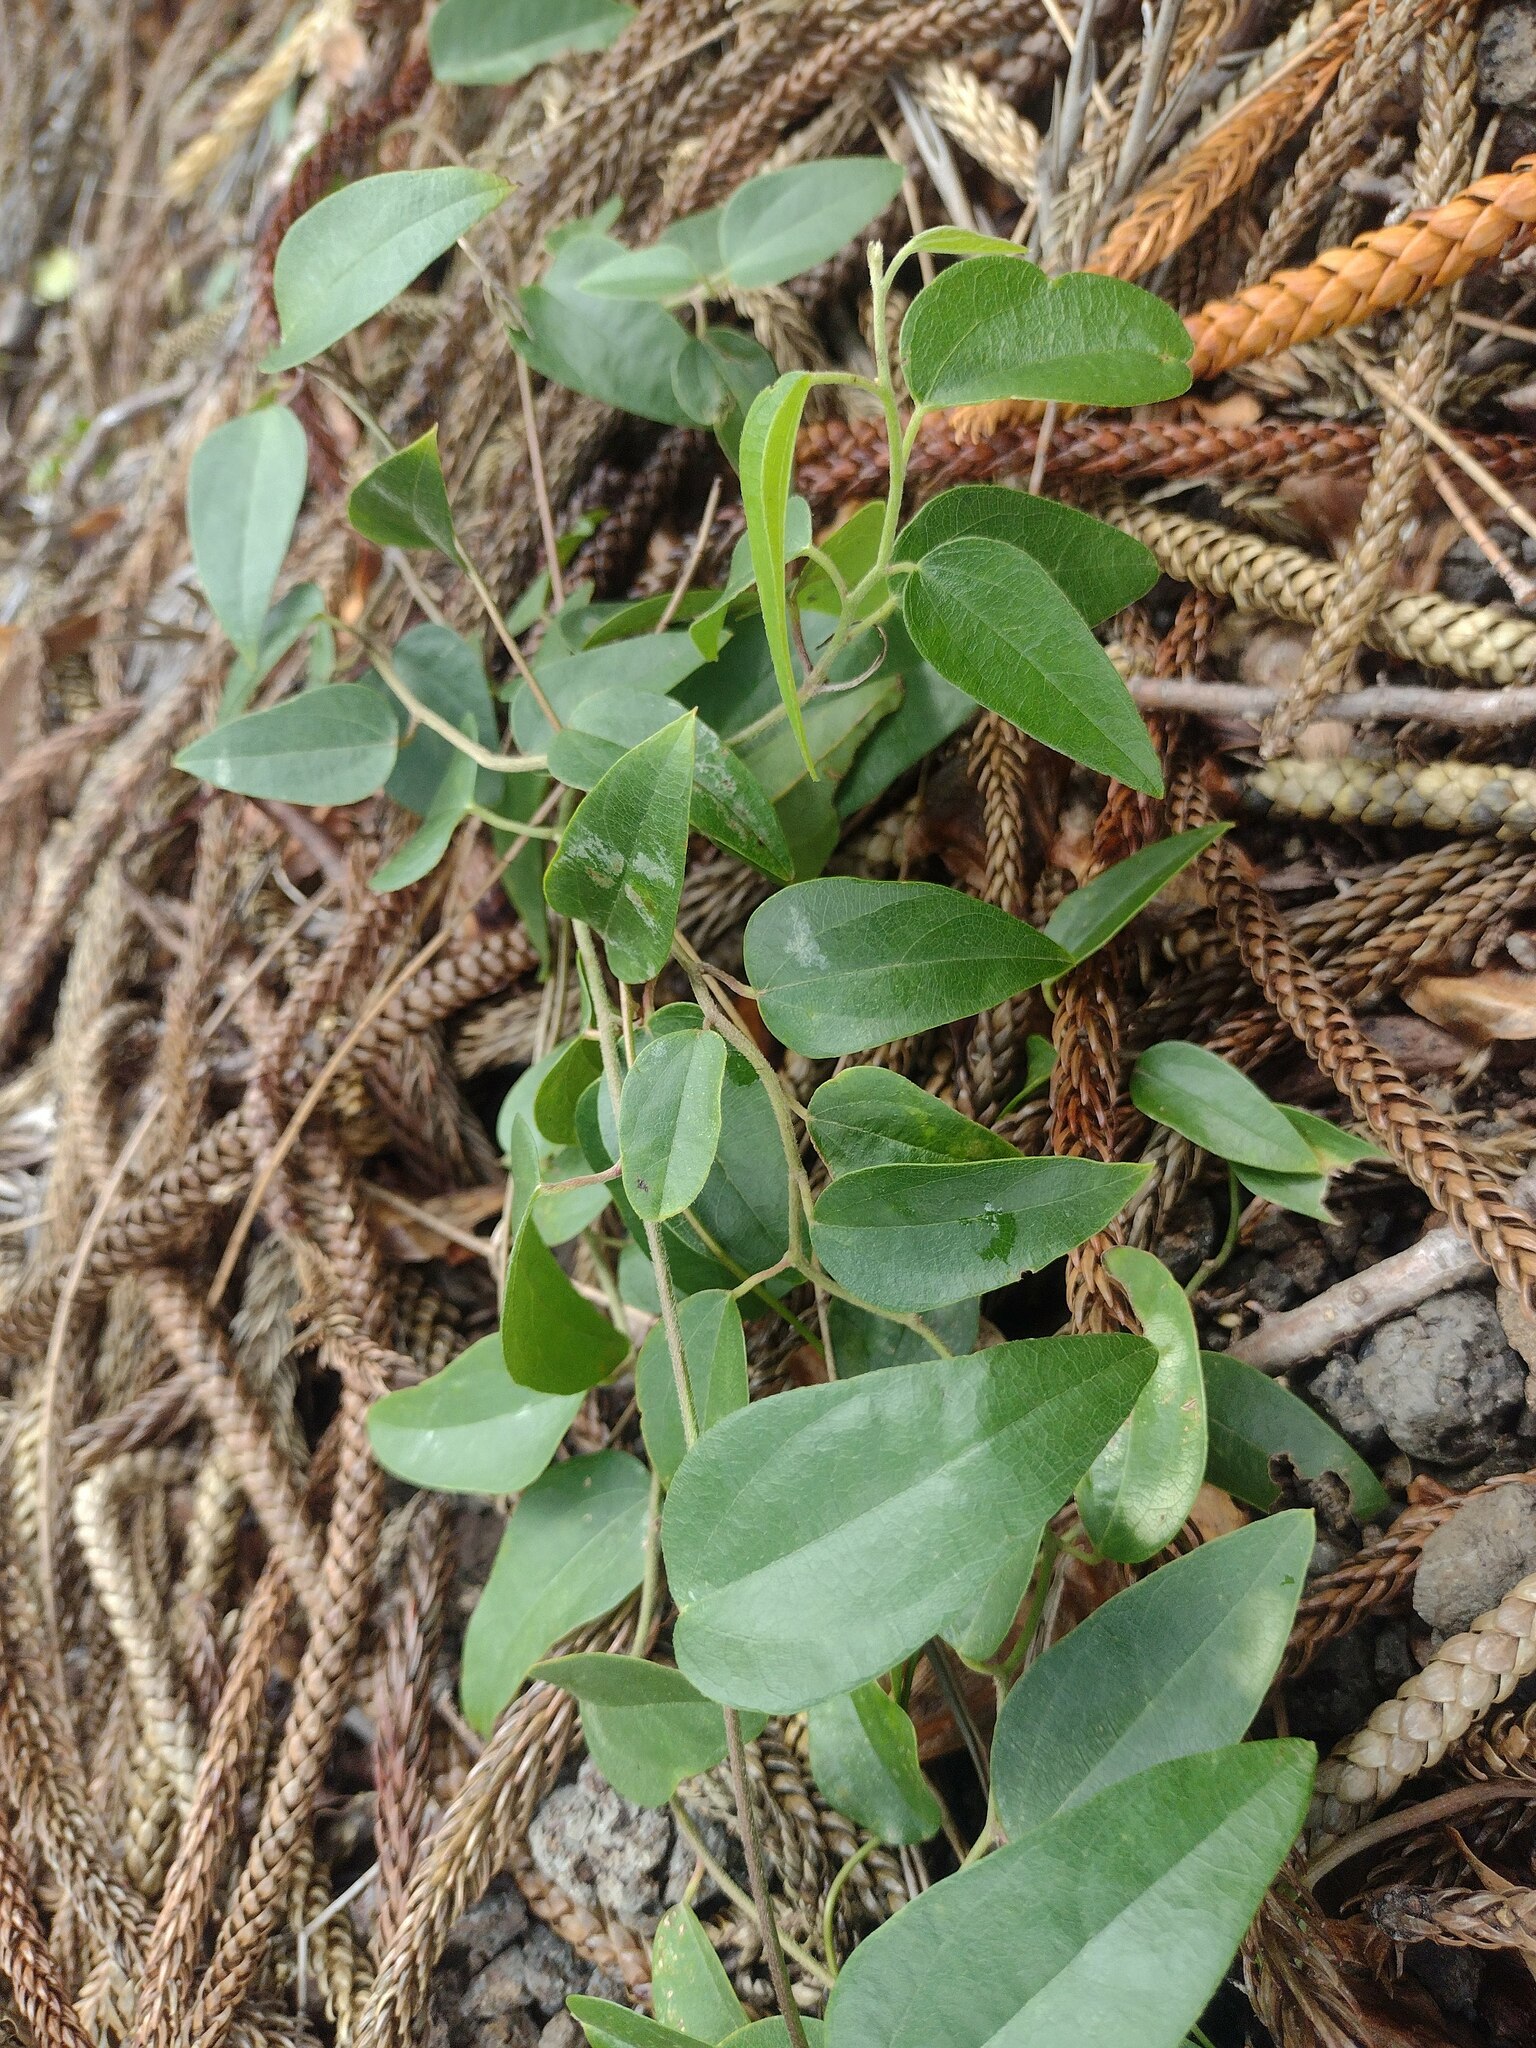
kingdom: Plantae
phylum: Tracheophyta
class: Magnoliopsida
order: Ranunculales
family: Menispermaceae
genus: Cocculus
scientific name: Cocculus orbiculatus
